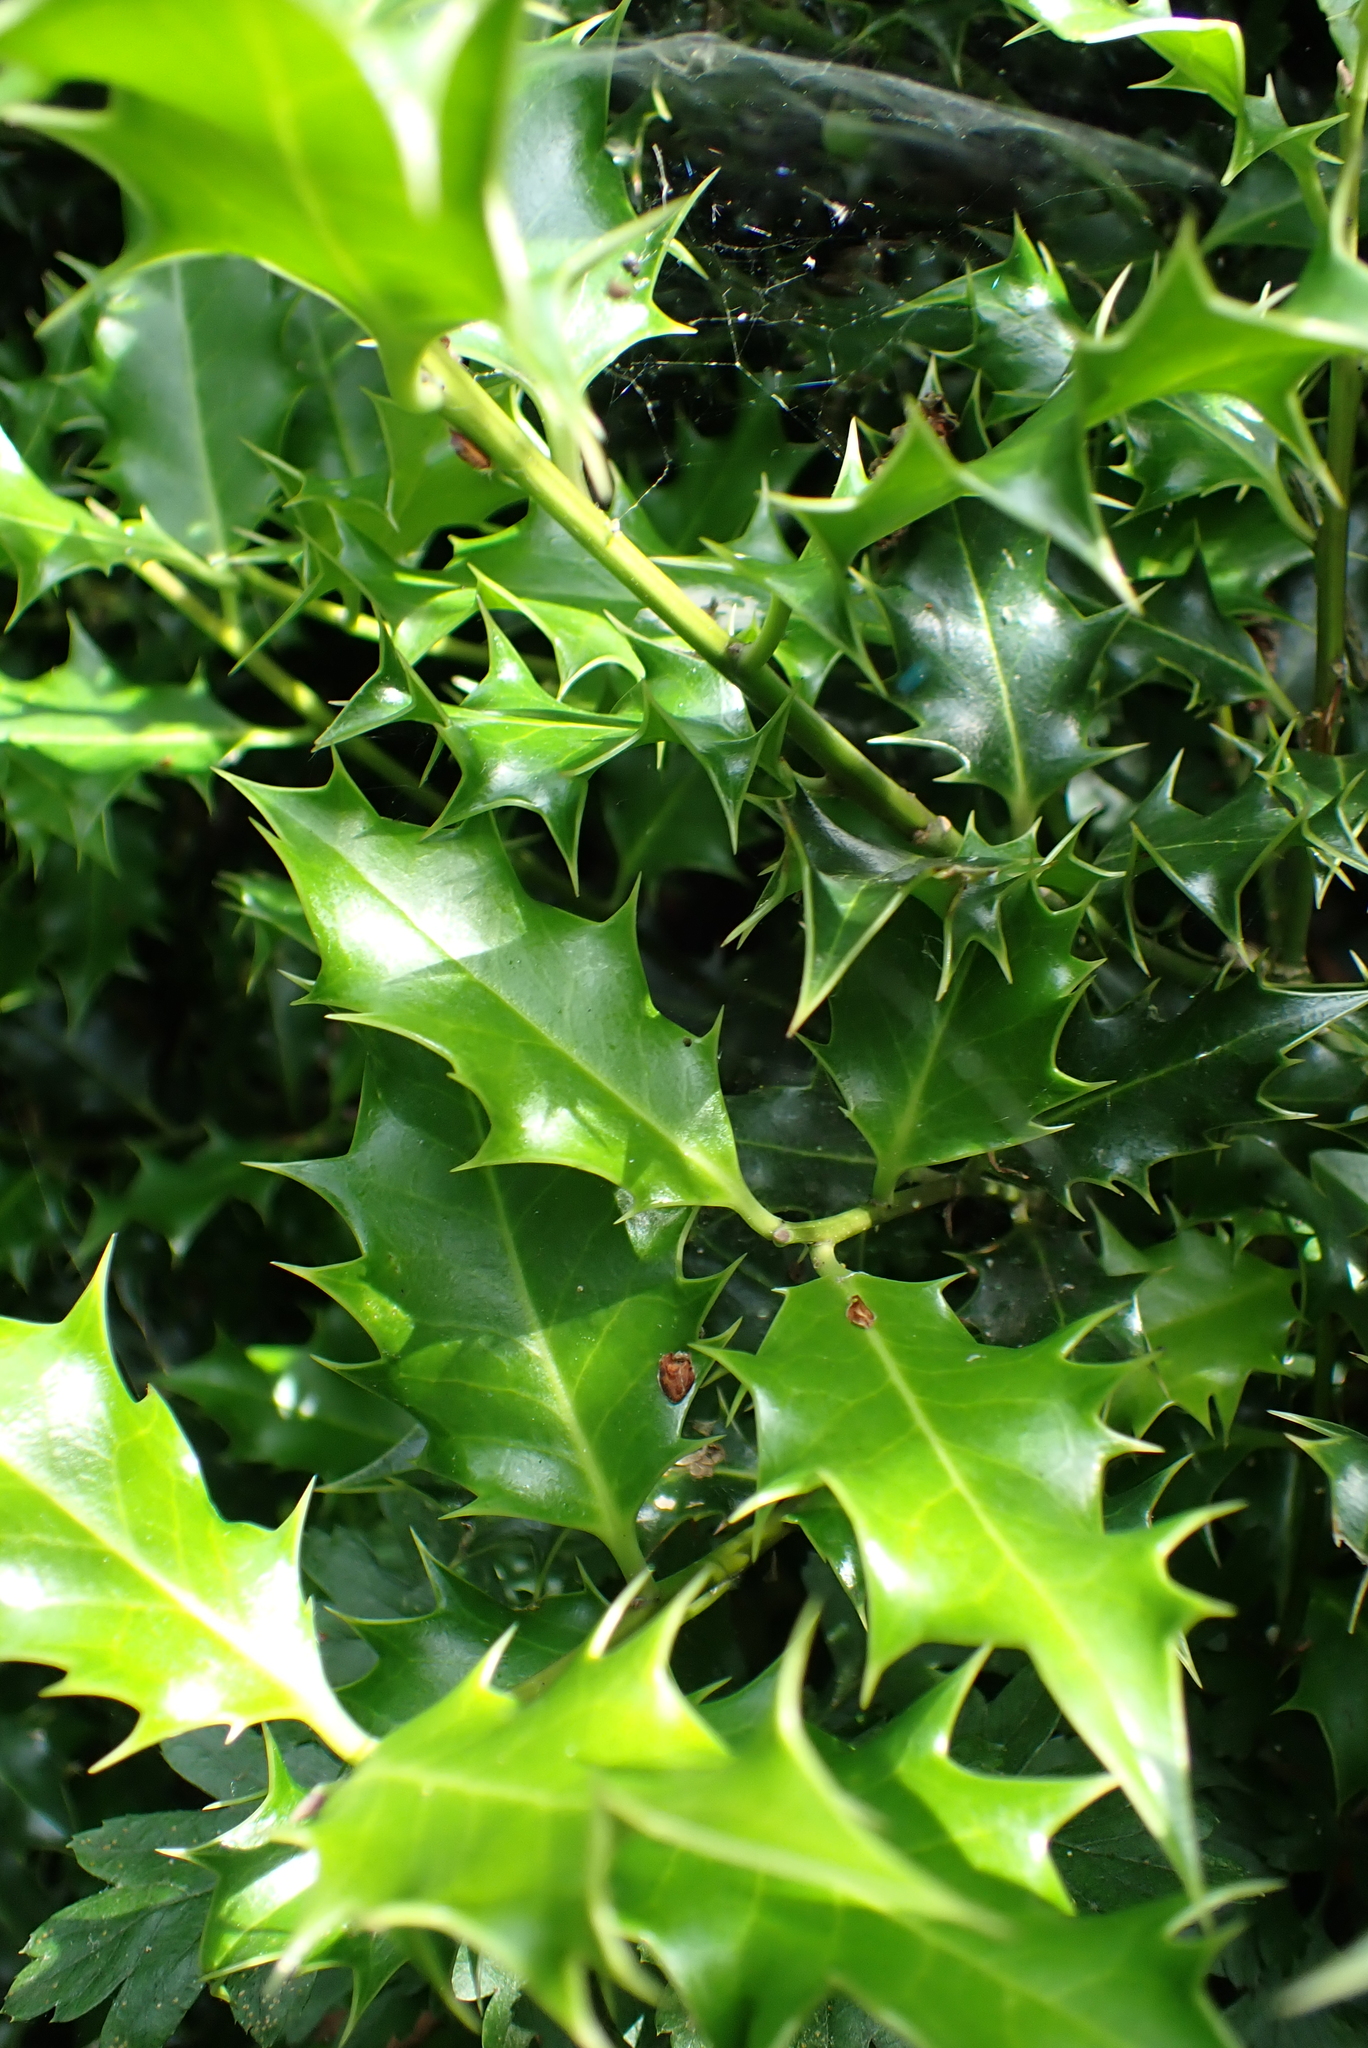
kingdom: Plantae
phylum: Tracheophyta
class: Magnoliopsida
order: Aquifoliales
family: Aquifoliaceae
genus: Ilex
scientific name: Ilex aquifolium
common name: English holly
